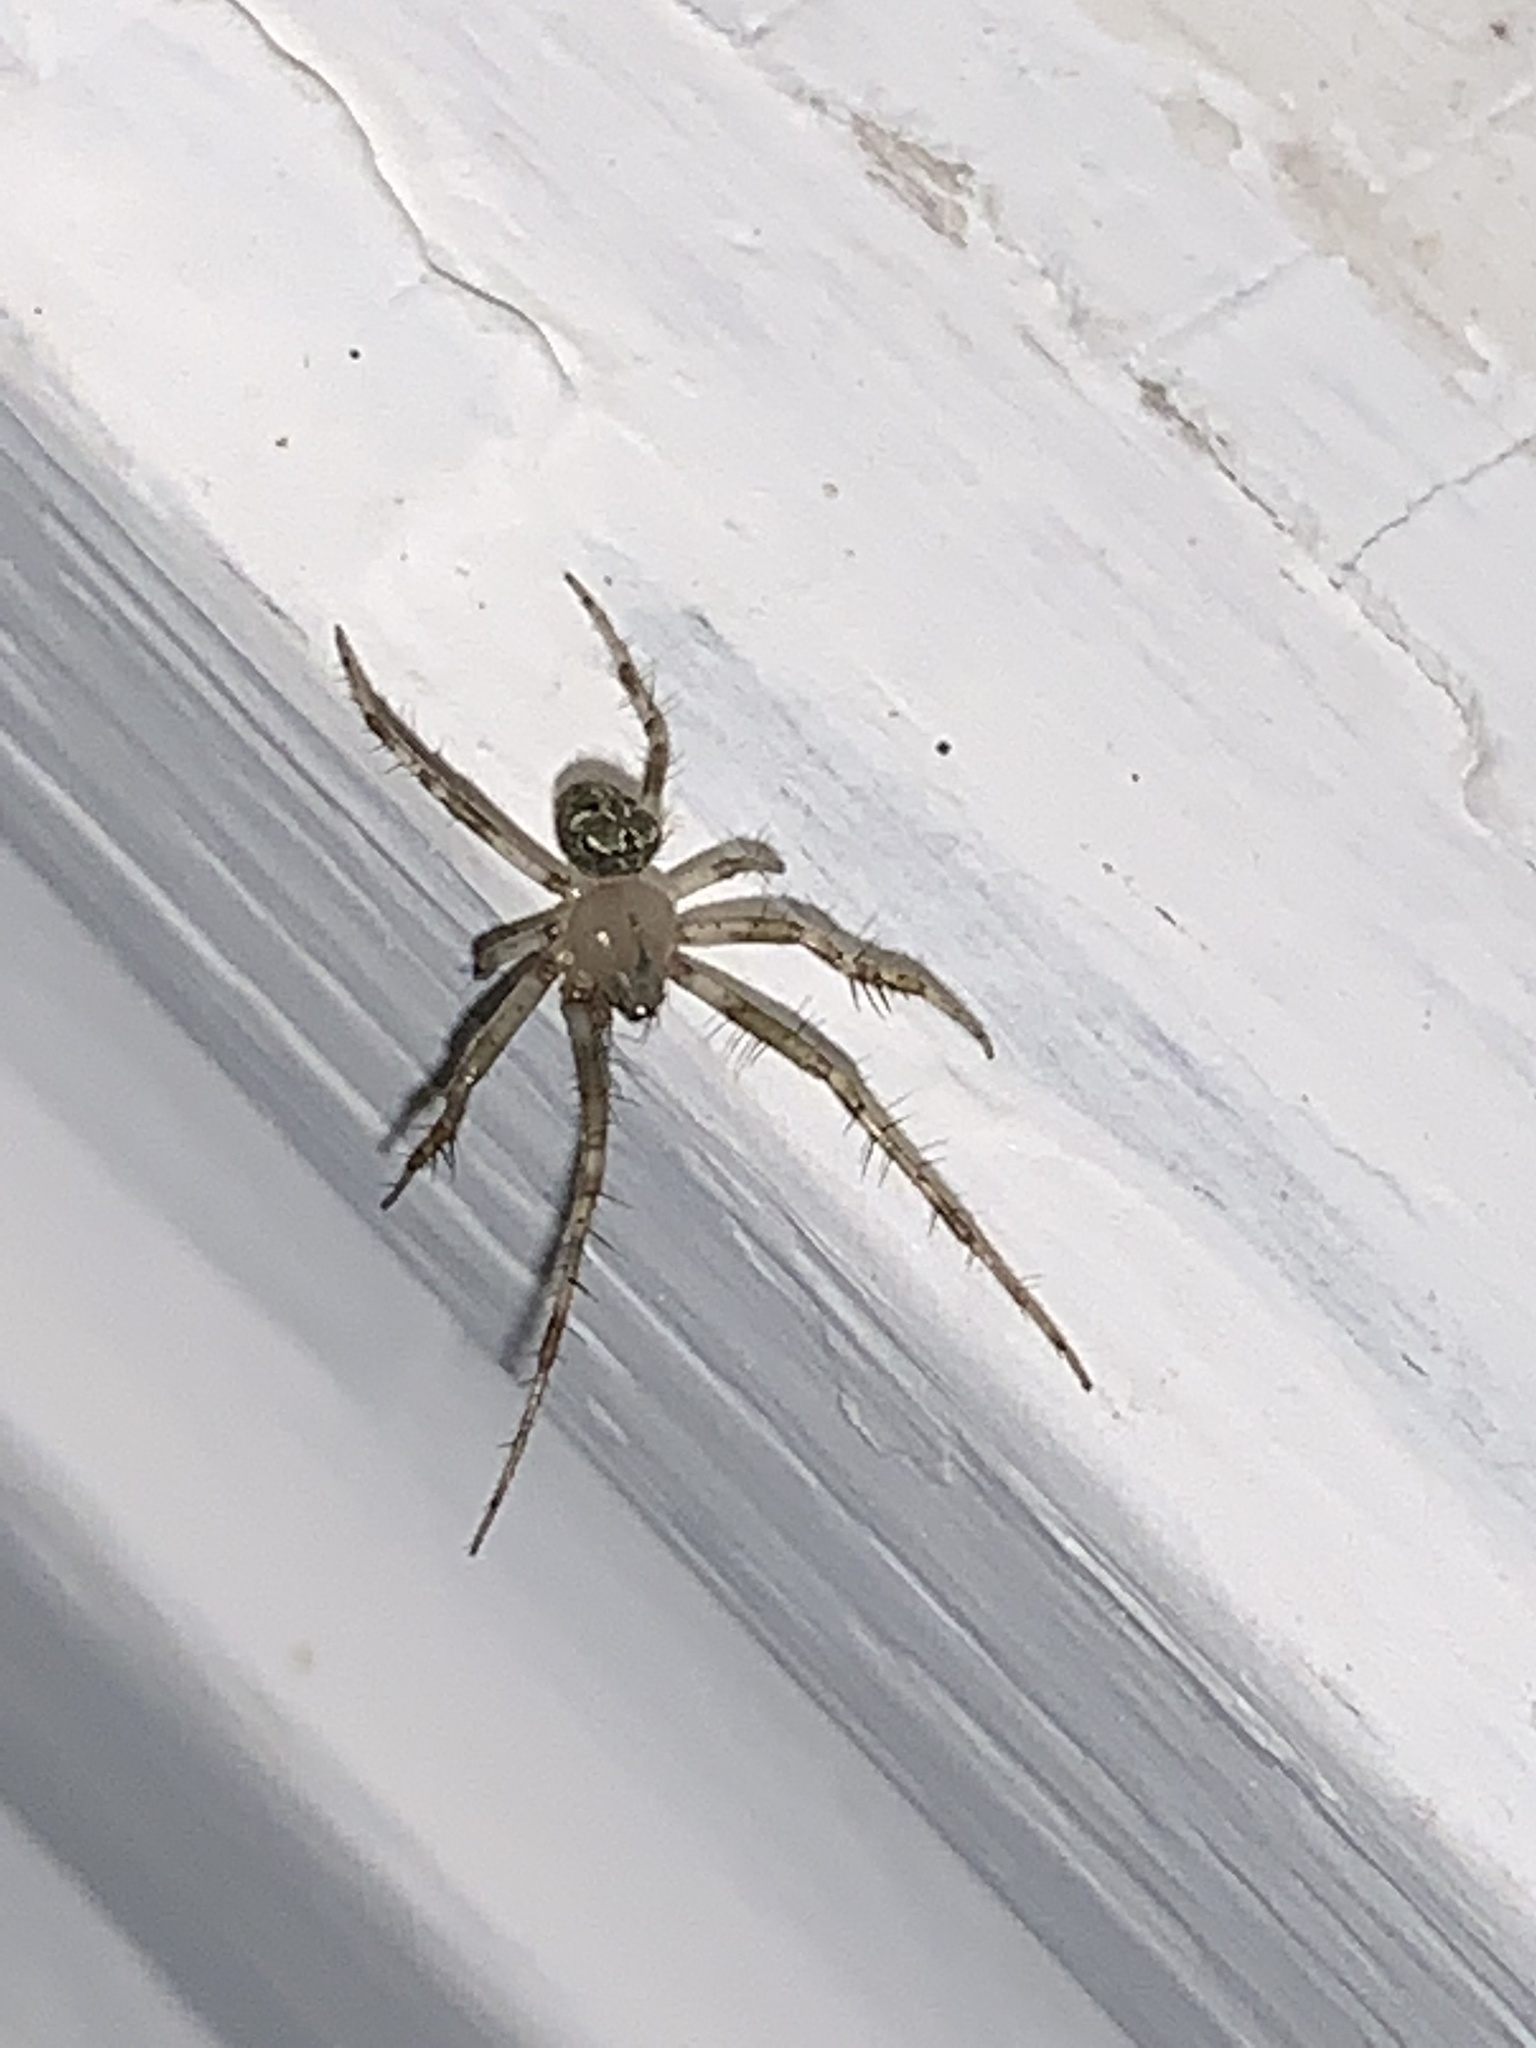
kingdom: Animalia
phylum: Arthropoda
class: Arachnida
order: Araneae
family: Araneidae
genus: Araneus
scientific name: Araneus pegnia
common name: Orb weavers
